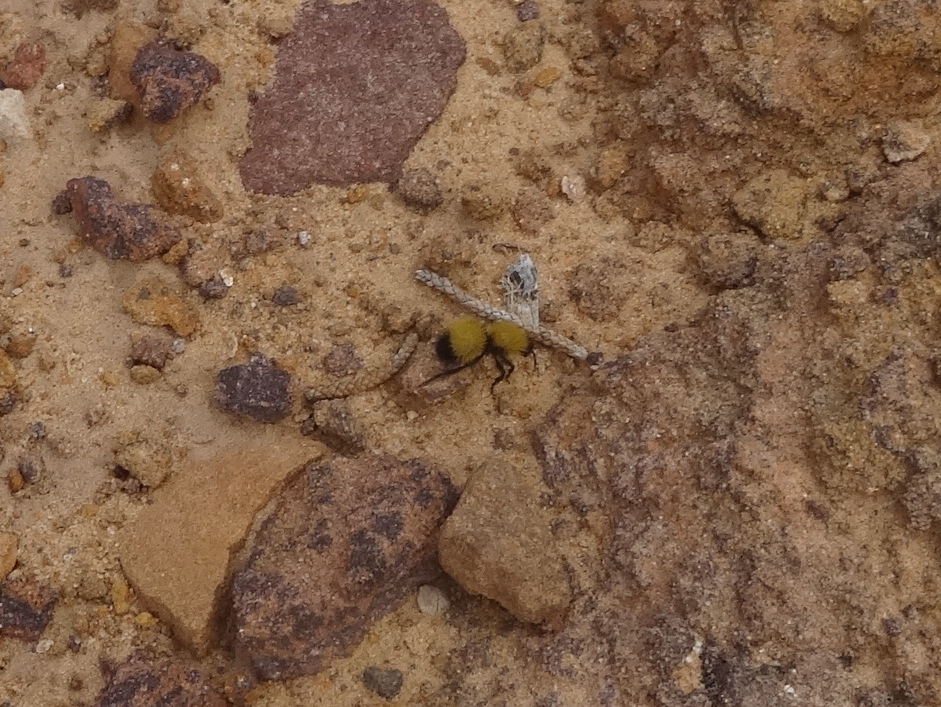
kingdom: Animalia
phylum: Arthropoda
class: Insecta
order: Hymenoptera
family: Mutillidae
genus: Dasymutilla
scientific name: Dasymutilla
